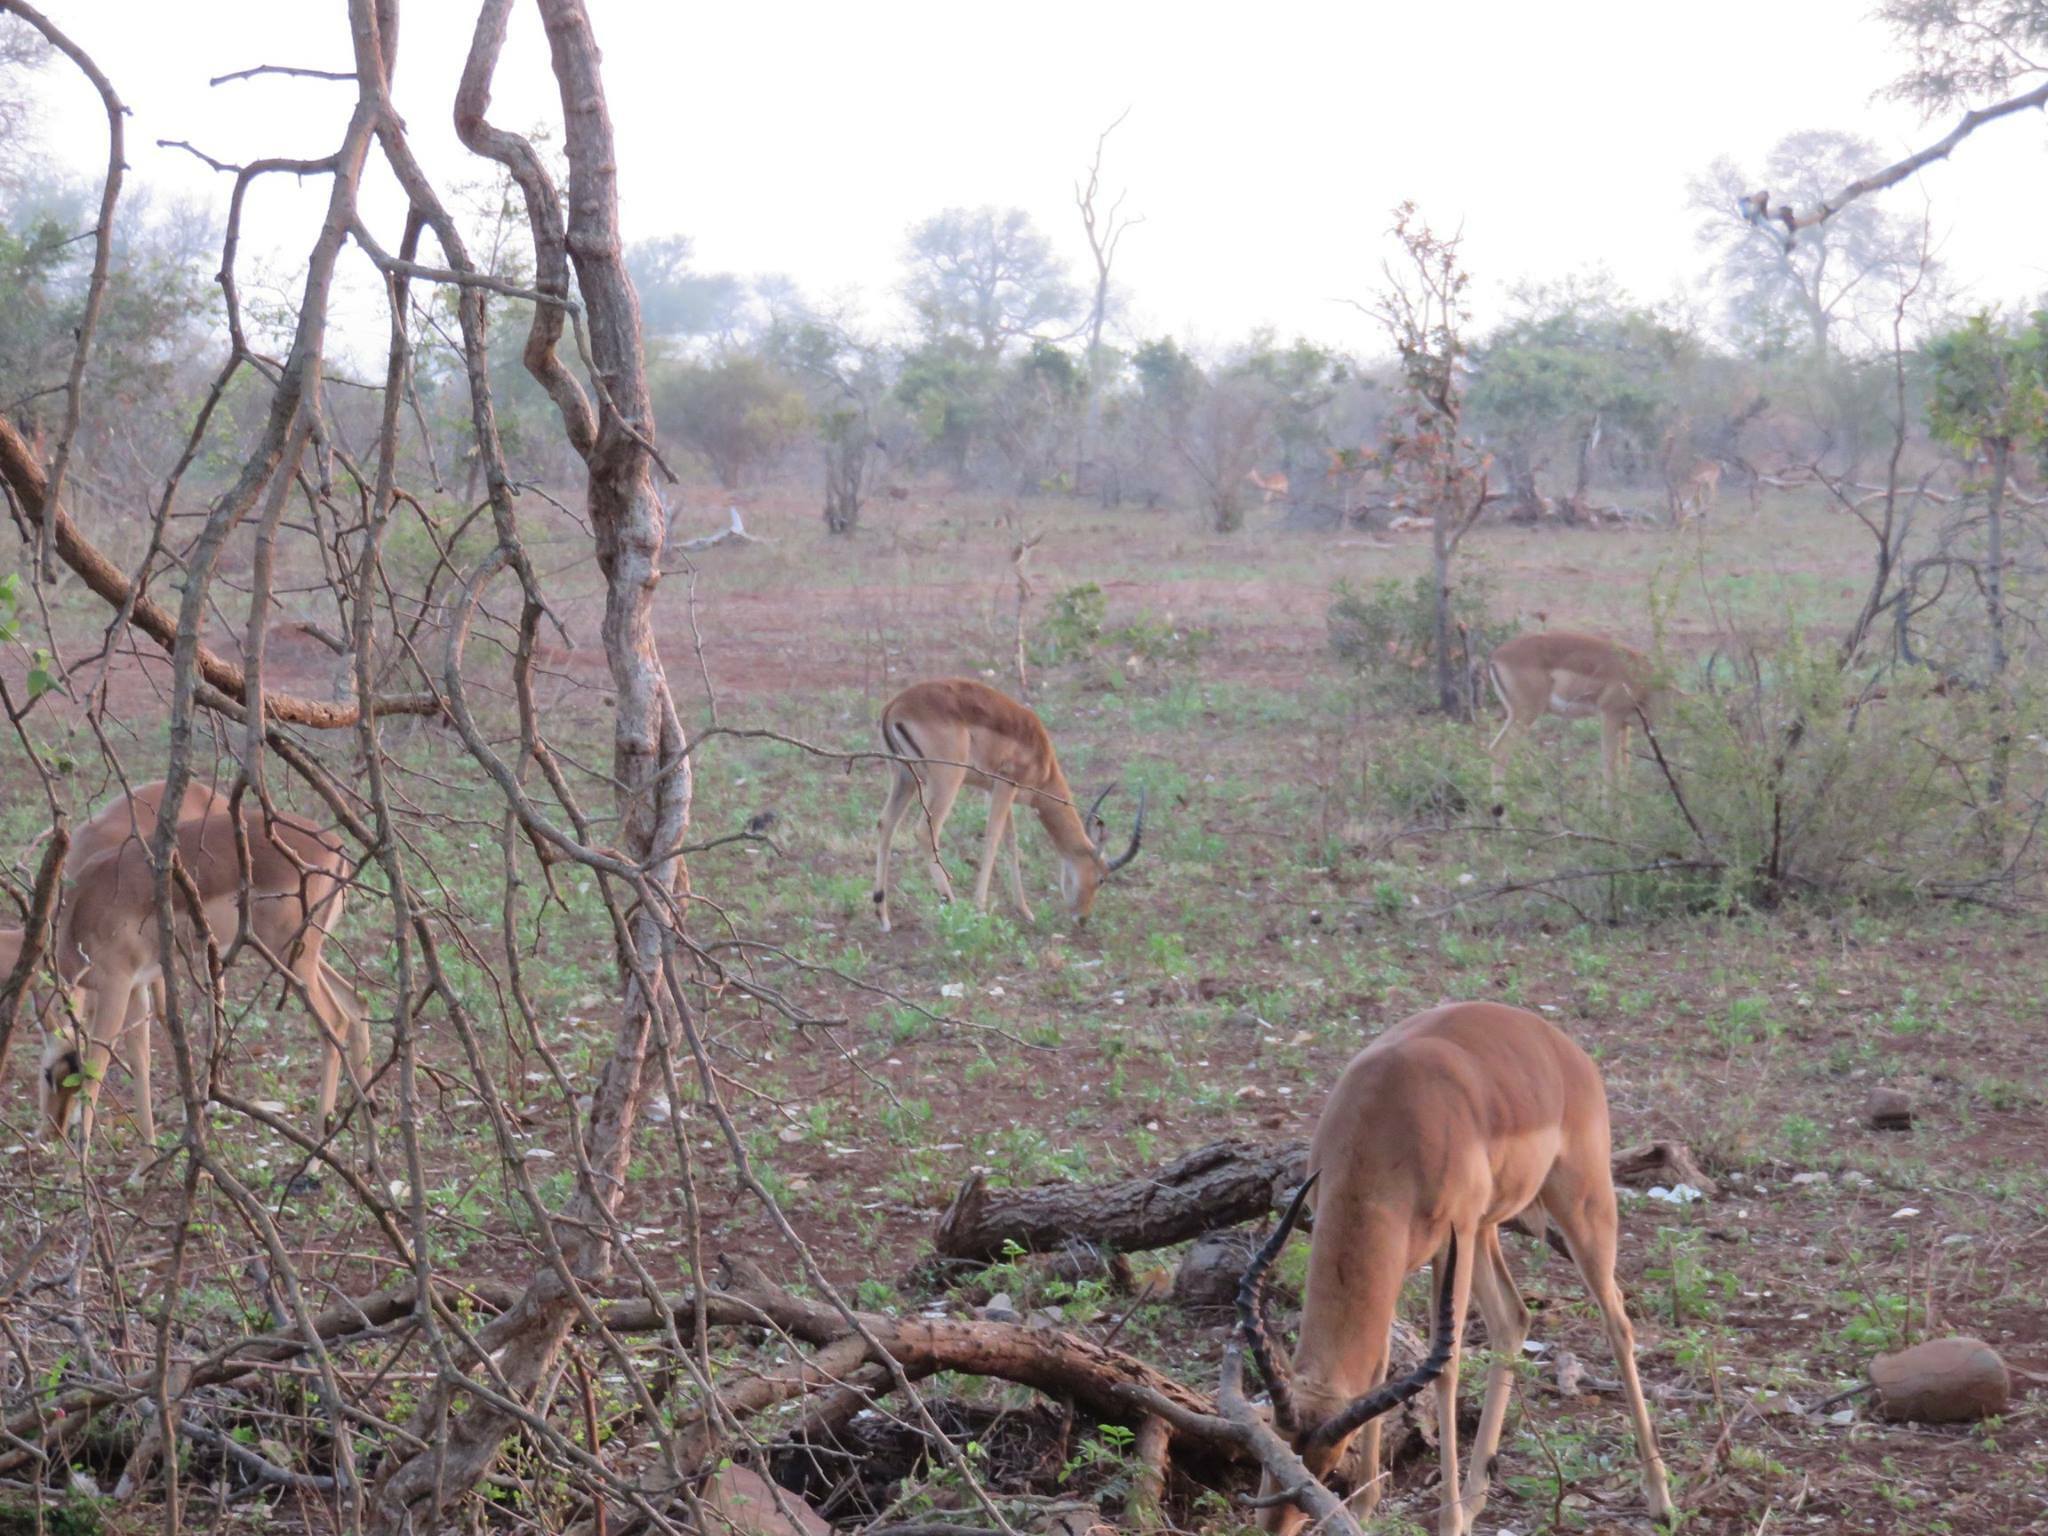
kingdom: Animalia
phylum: Chordata
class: Mammalia
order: Artiodactyla
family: Bovidae
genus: Aepyceros
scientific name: Aepyceros melampus
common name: Impala
